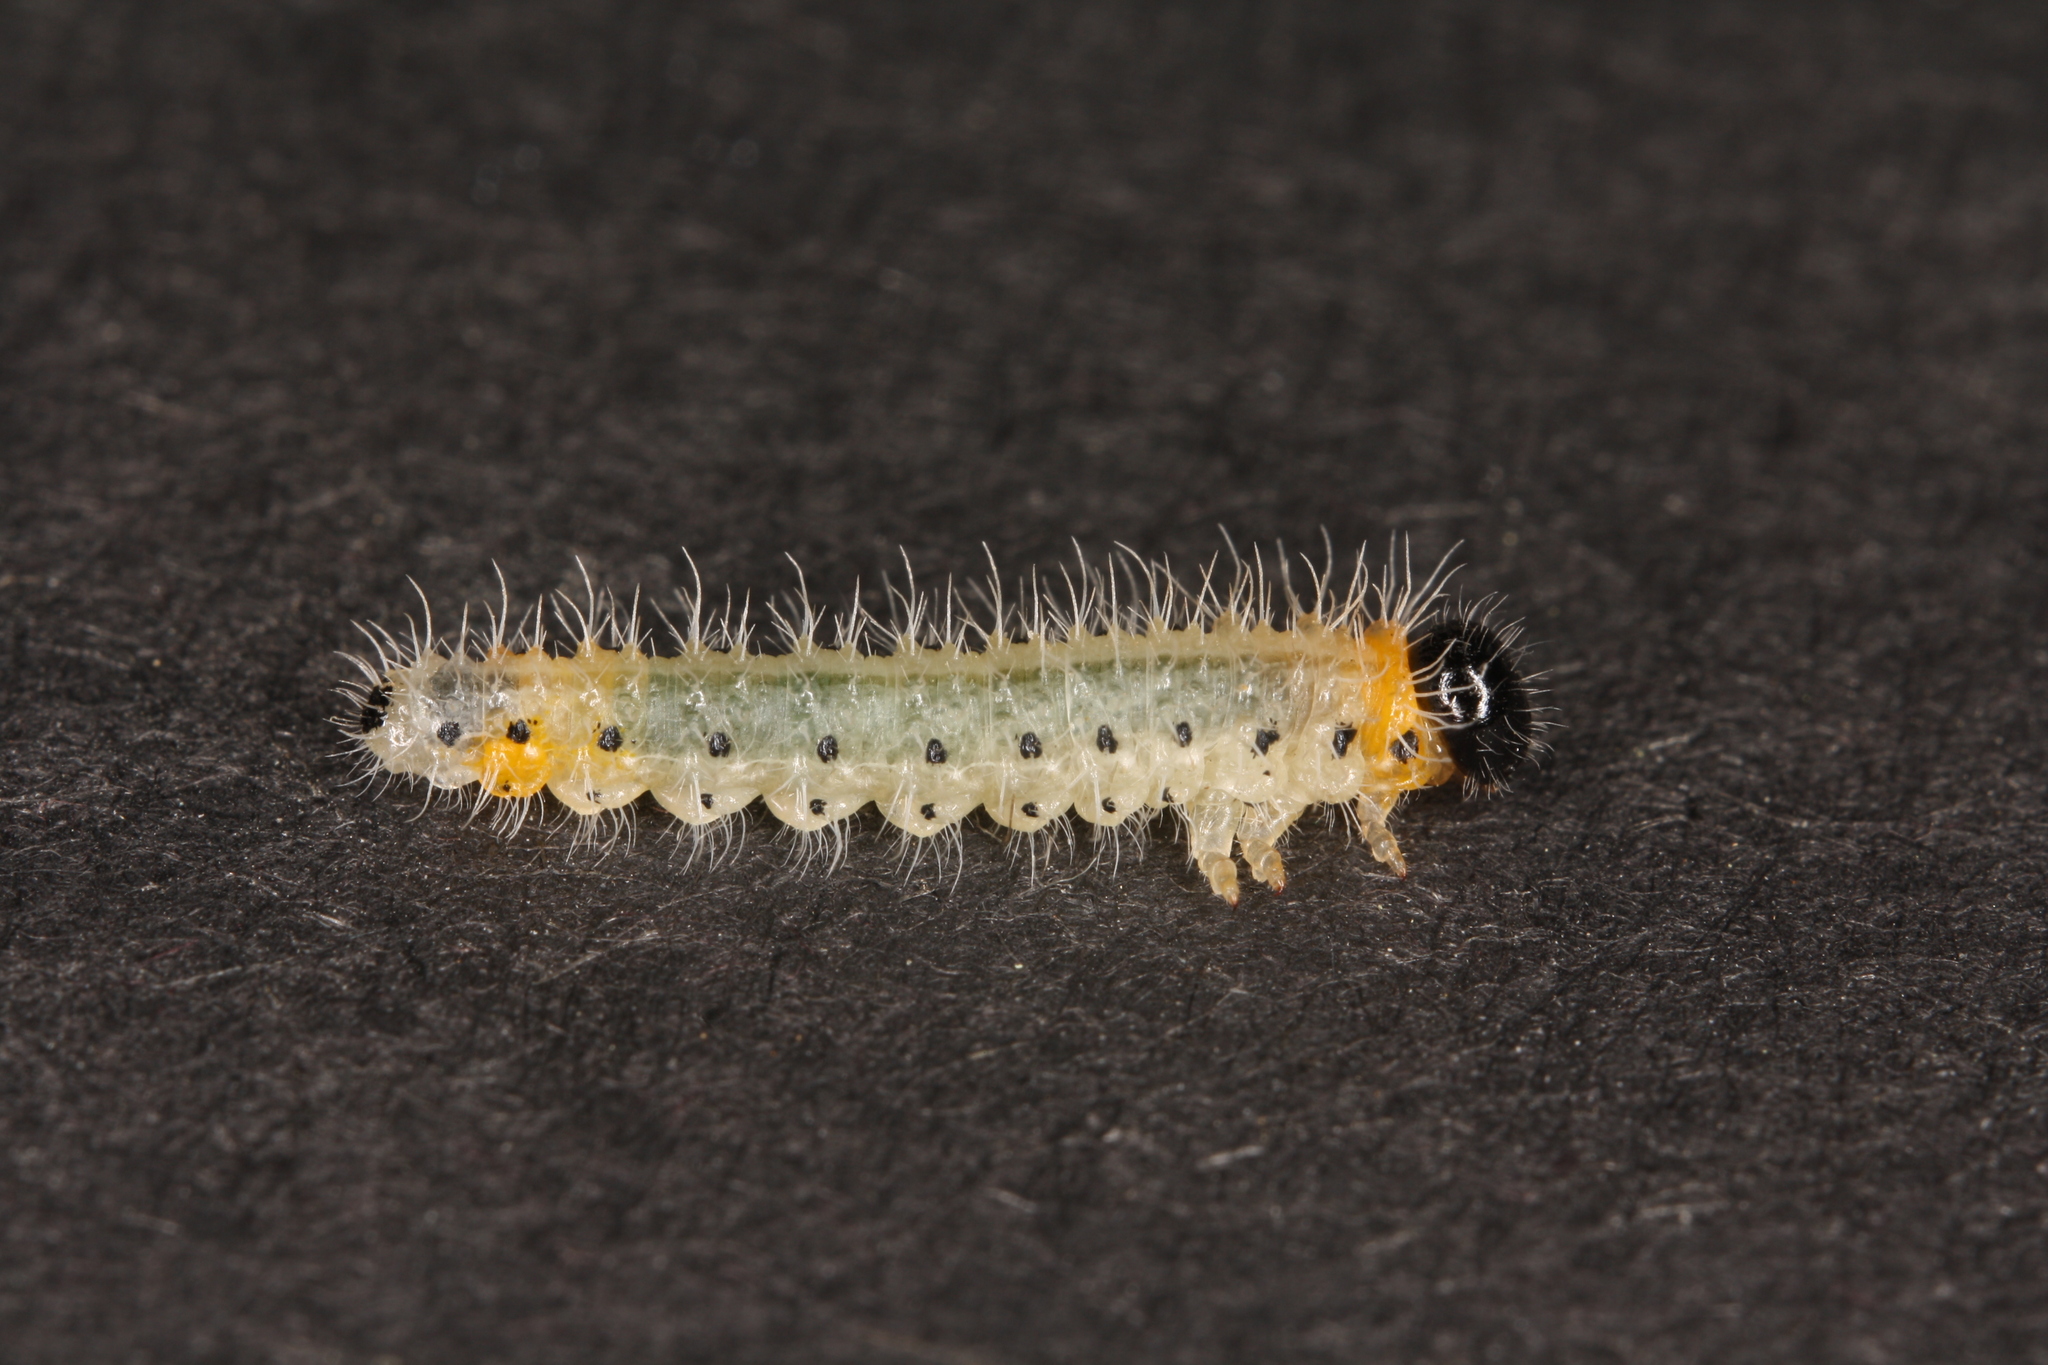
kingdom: Animalia
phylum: Arthropoda
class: Insecta
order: Hymenoptera
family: Tenthredinidae
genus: Cladius
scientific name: Cladius grandis
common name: Common sawfly
